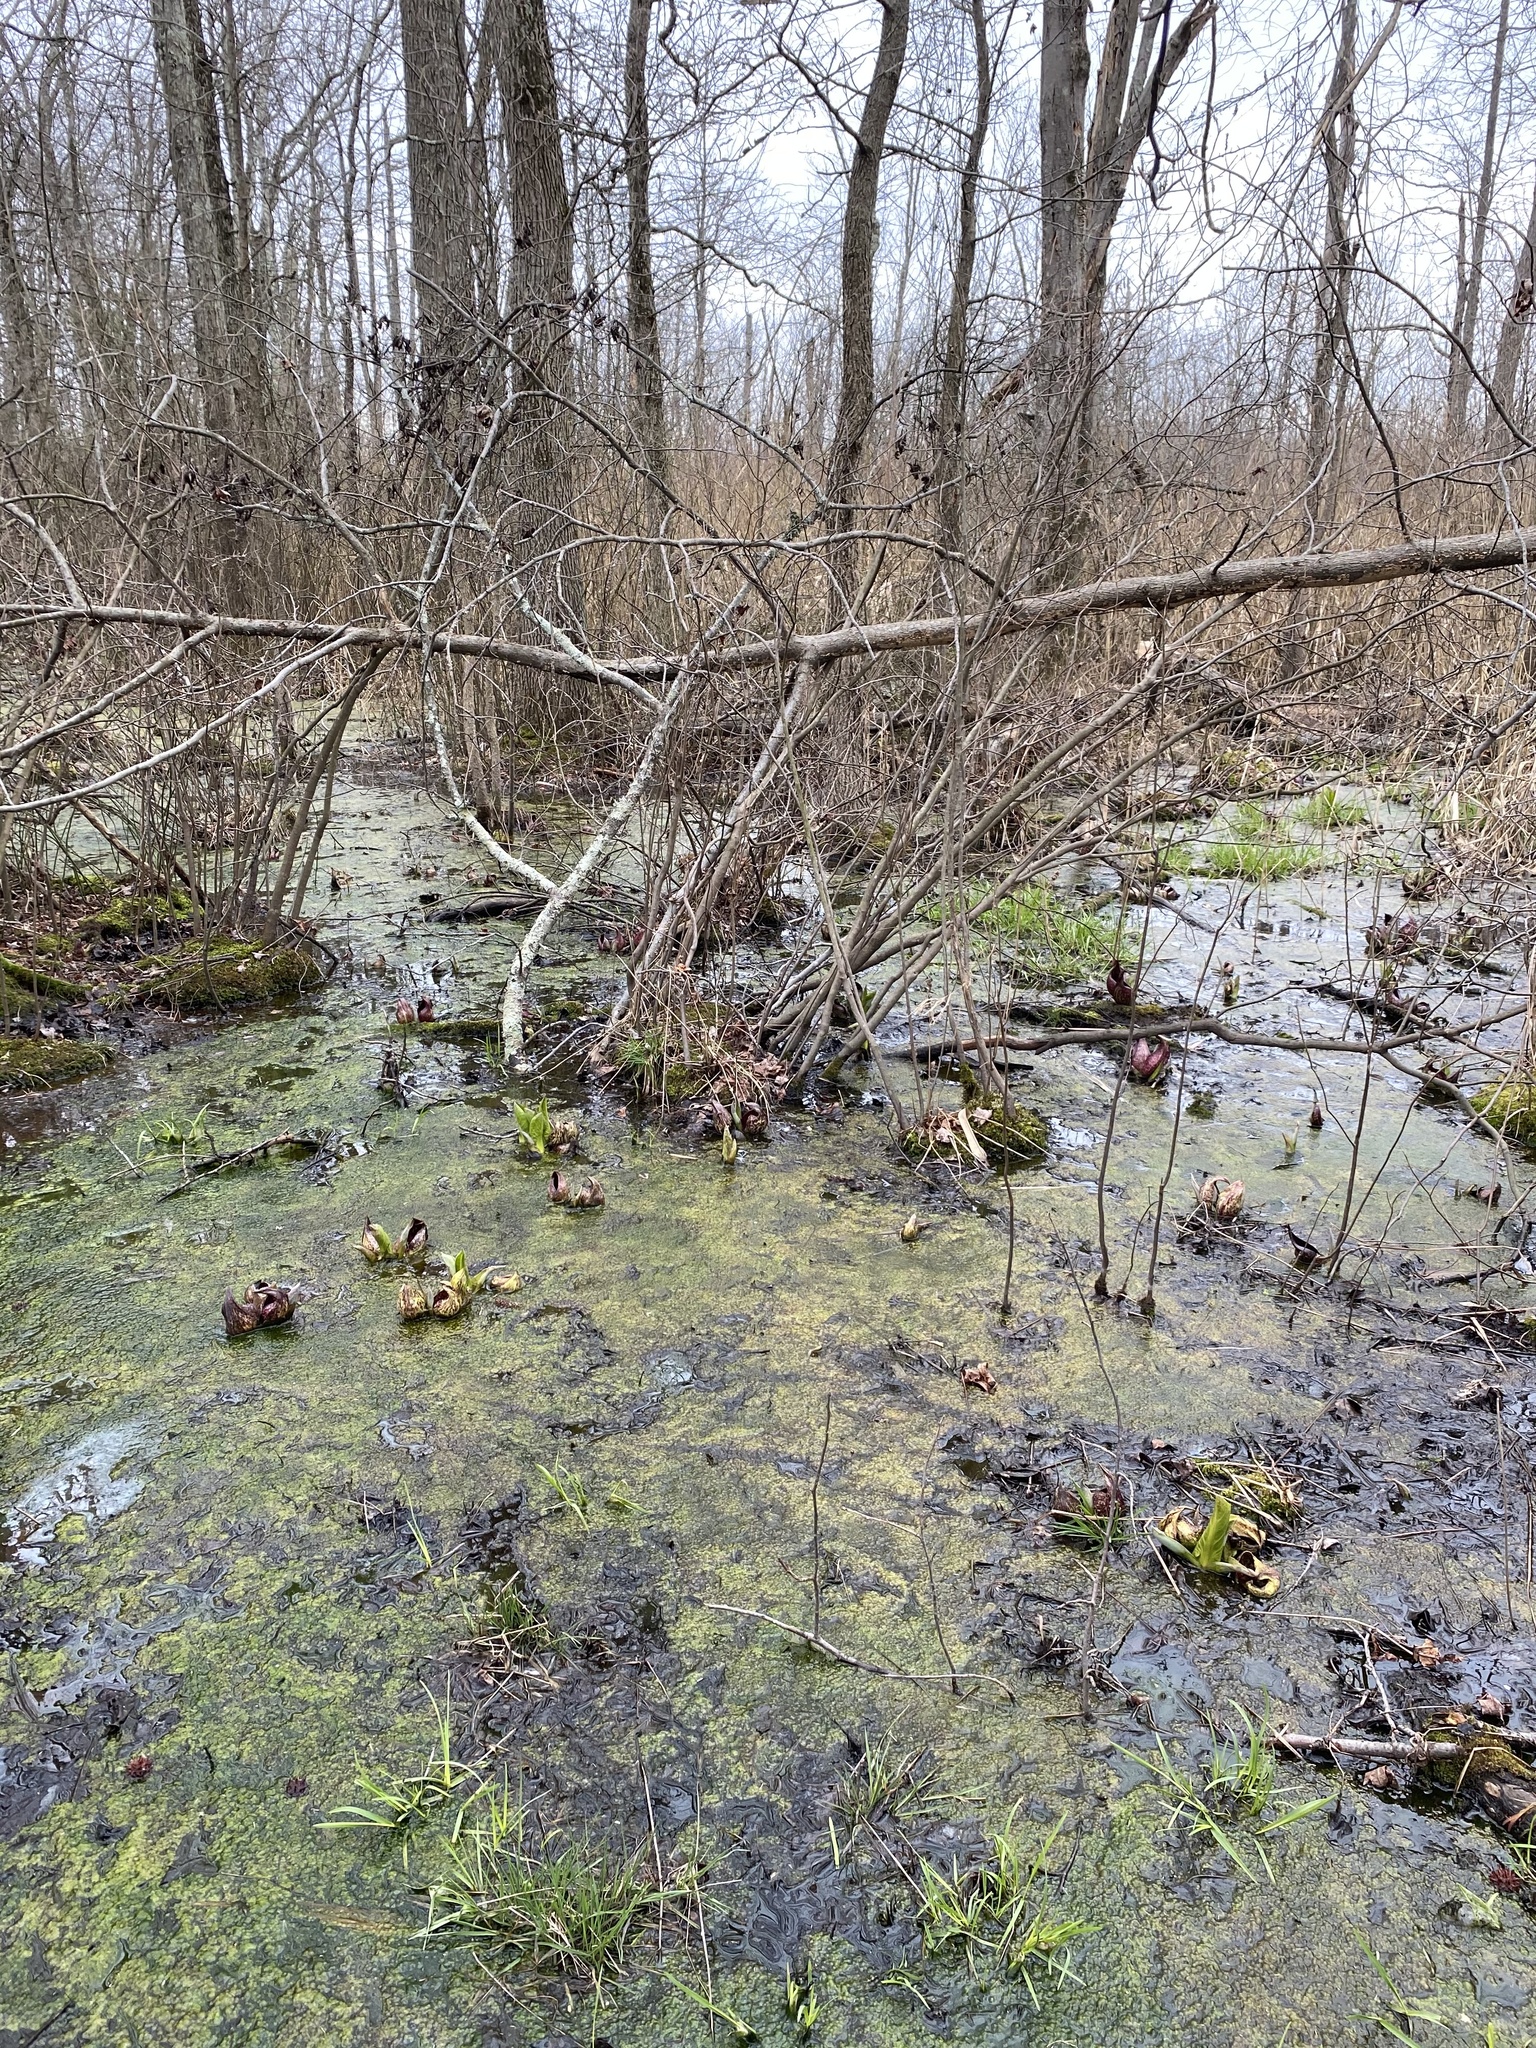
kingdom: Plantae
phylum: Tracheophyta
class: Liliopsida
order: Alismatales
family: Araceae
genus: Symplocarpus
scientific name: Symplocarpus foetidus
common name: Eastern skunk cabbage
